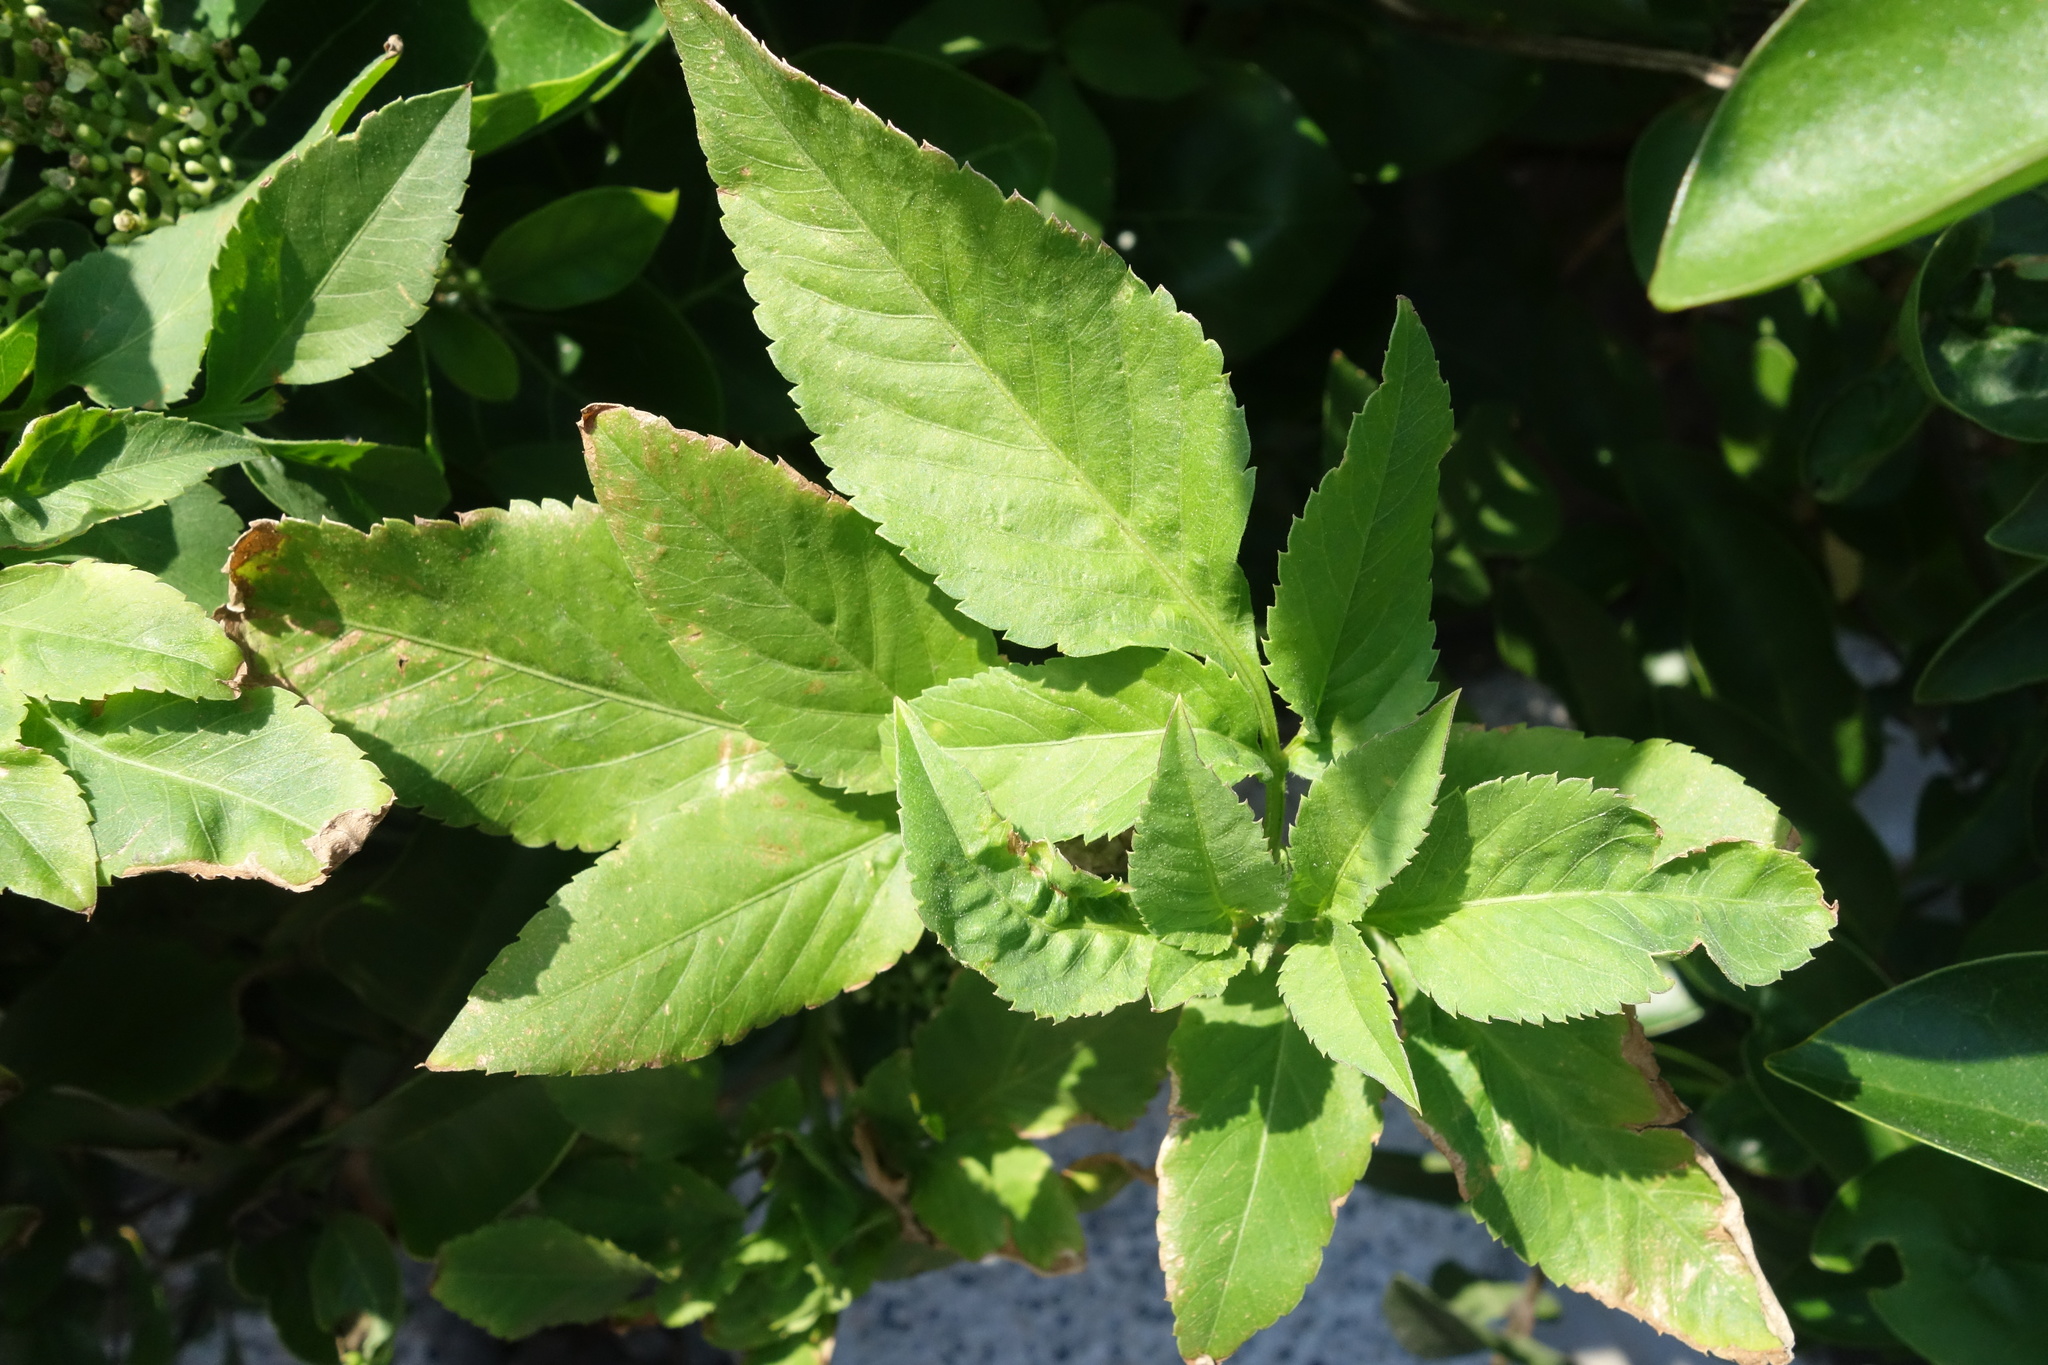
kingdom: Plantae
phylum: Tracheophyta
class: Magnoliopsida
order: Asterales
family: Asteraceae
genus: Bidens
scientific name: Bidens alba
